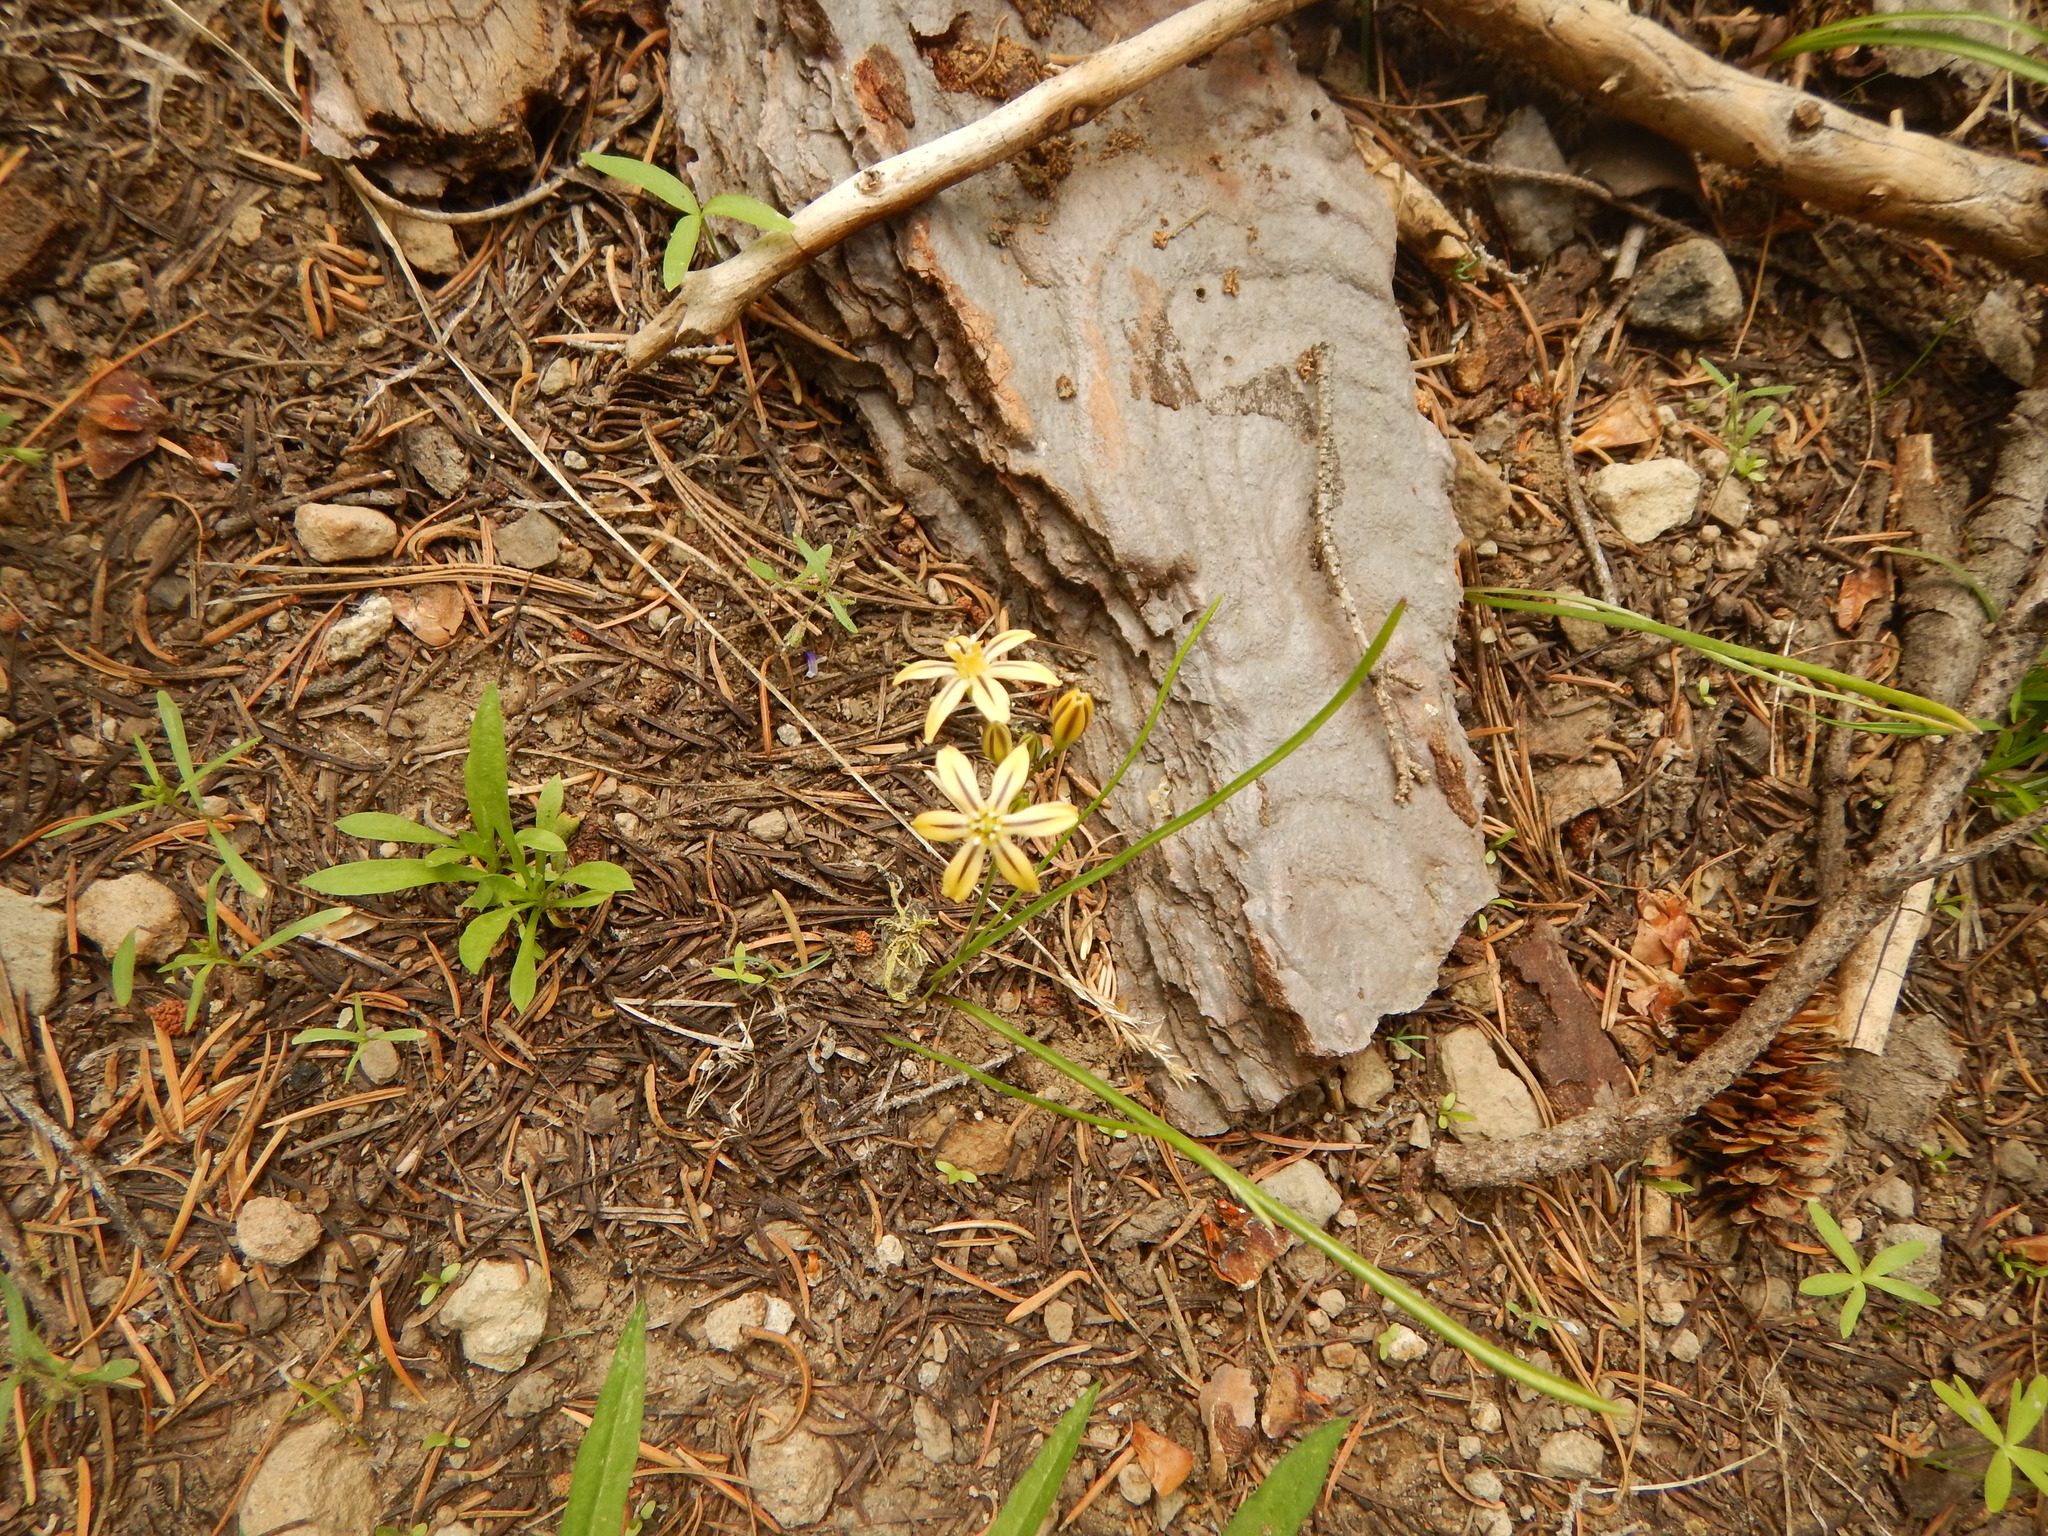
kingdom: Plantae
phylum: Tracheophyta
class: Liliopsida
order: Asparagales
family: Asparagaceae
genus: Triteleia
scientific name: Triteleia ixioides
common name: Yellow-brodiaea
